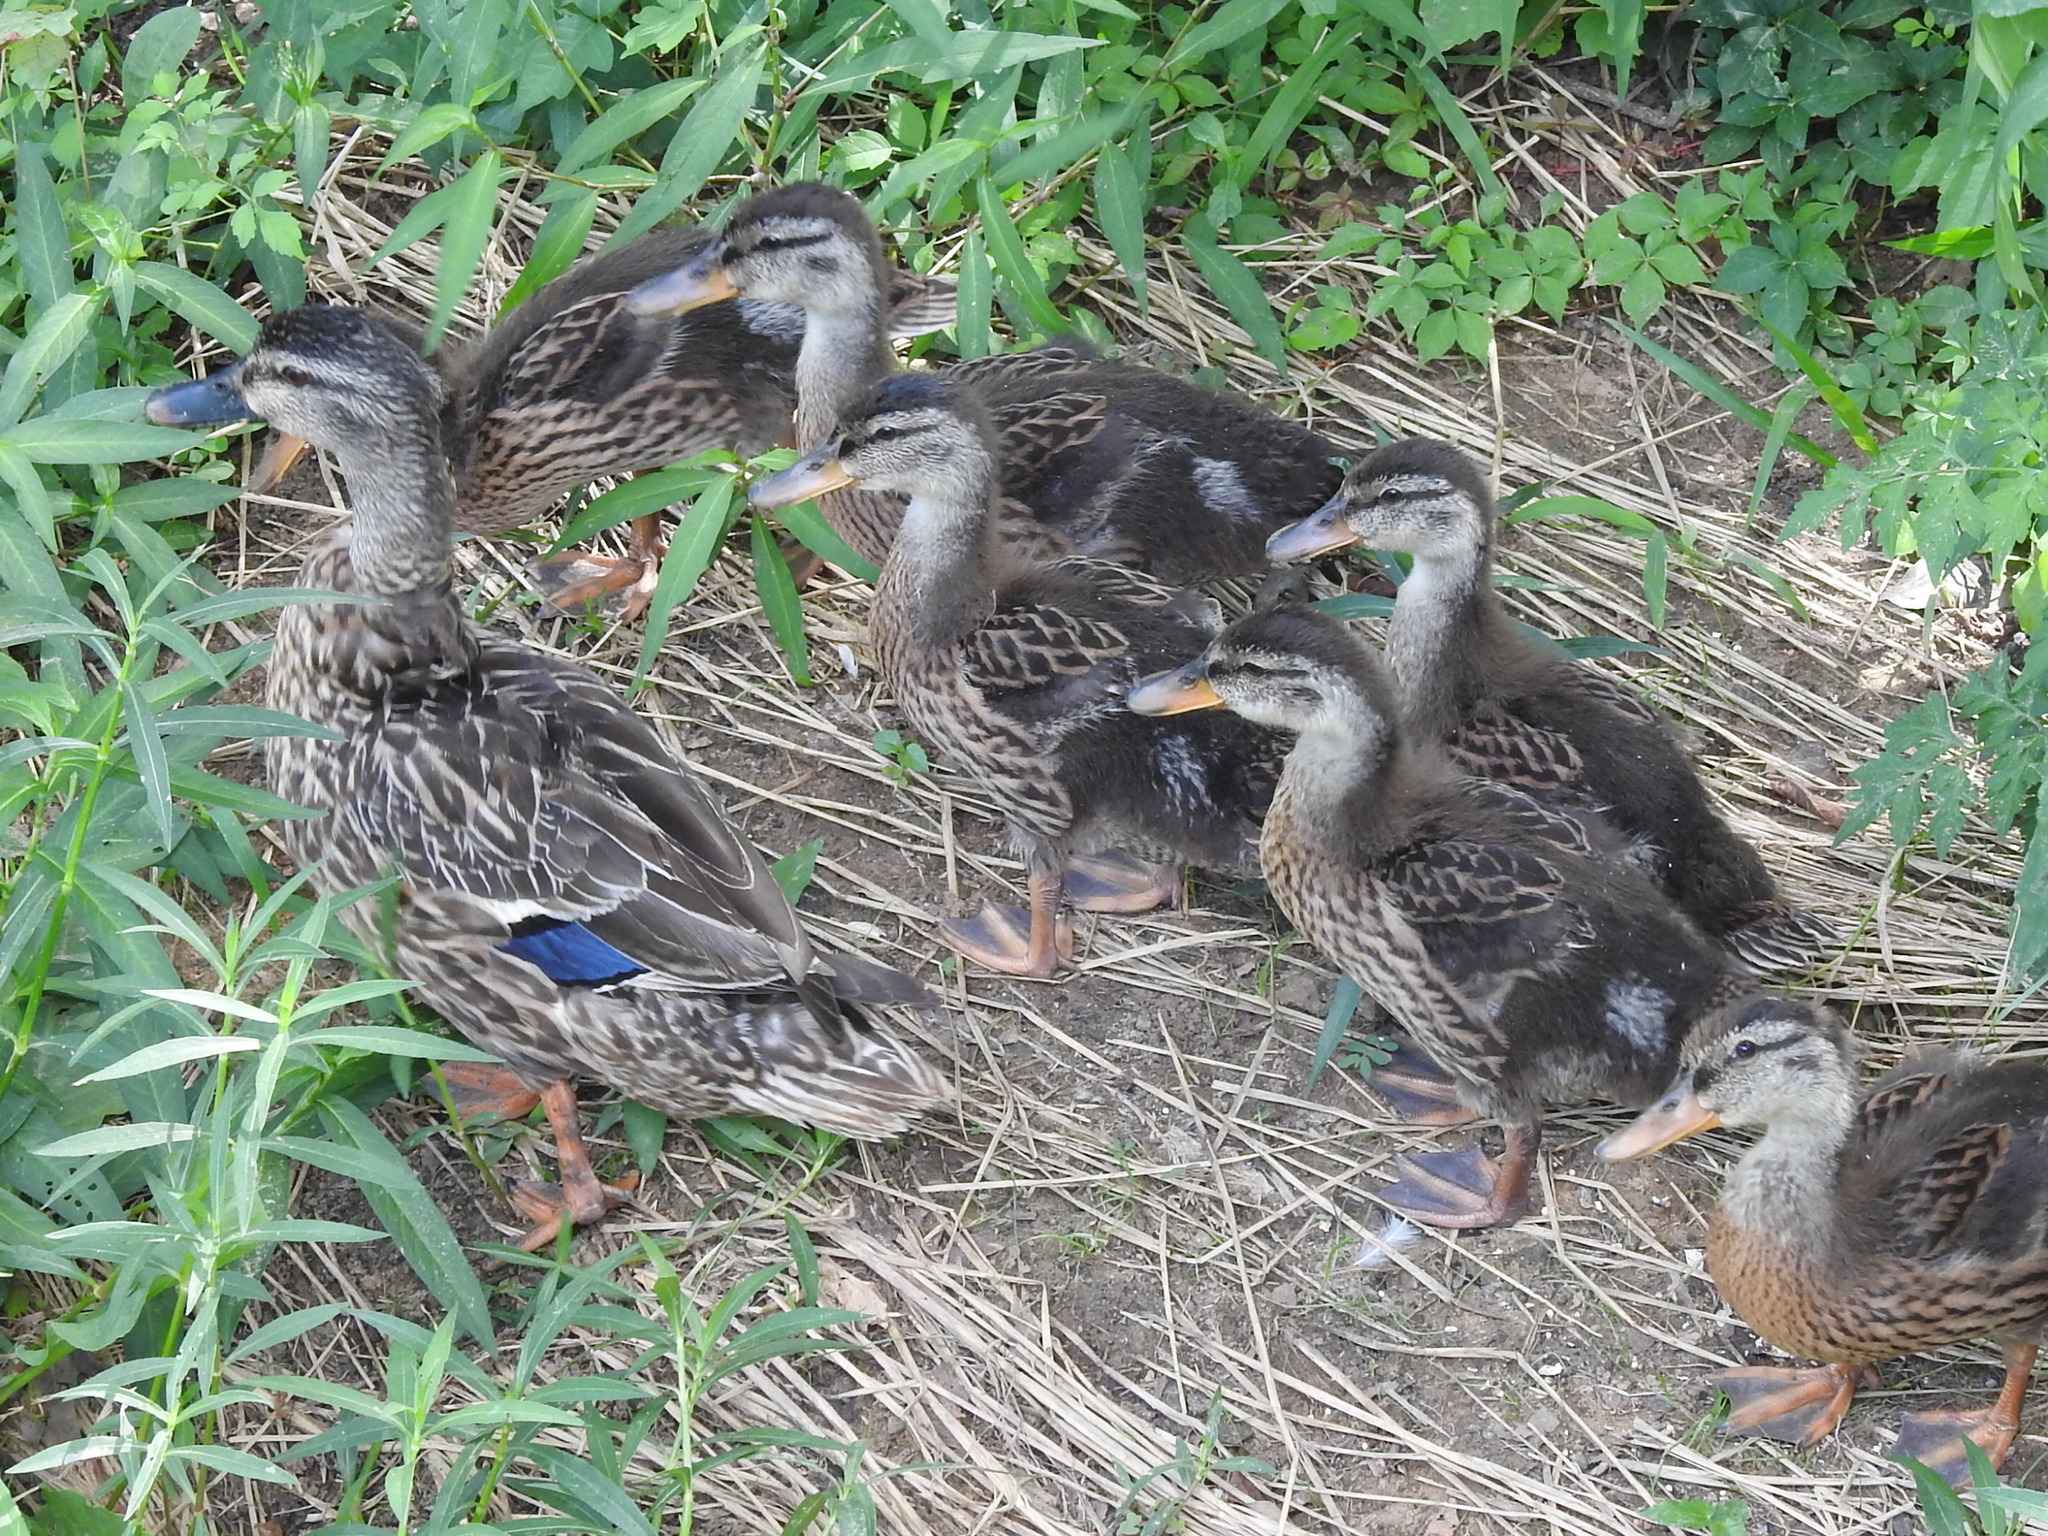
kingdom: Animalia
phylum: Chordata
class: Aves
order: Anseriformes
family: Anatidae
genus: Anas
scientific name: Anas platyrhynchos
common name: Mallard
